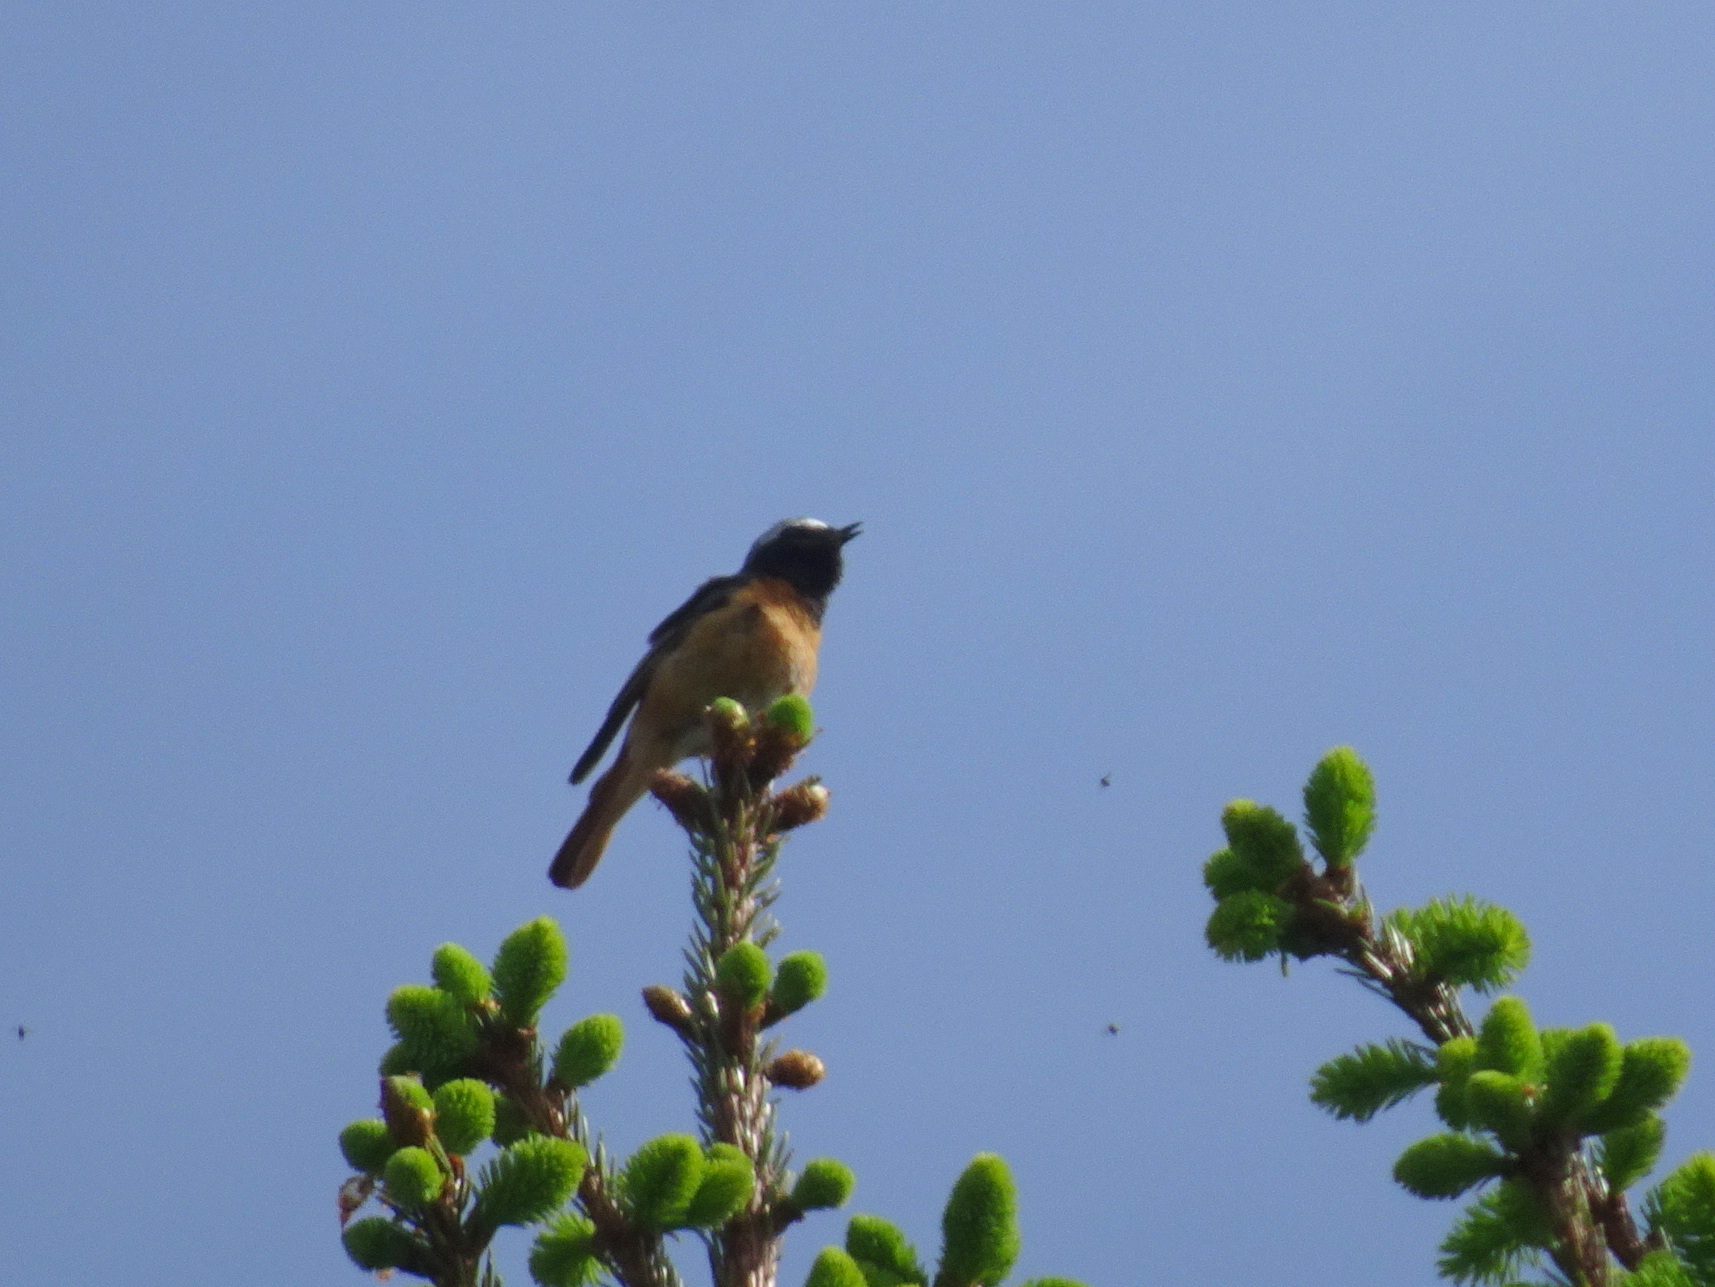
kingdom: Animalia
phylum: Chordata
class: Aves
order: Passeriformes
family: Muscicapidae
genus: Phoenicurus
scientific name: Phoenicurus phoenicurus
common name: Common redstart
